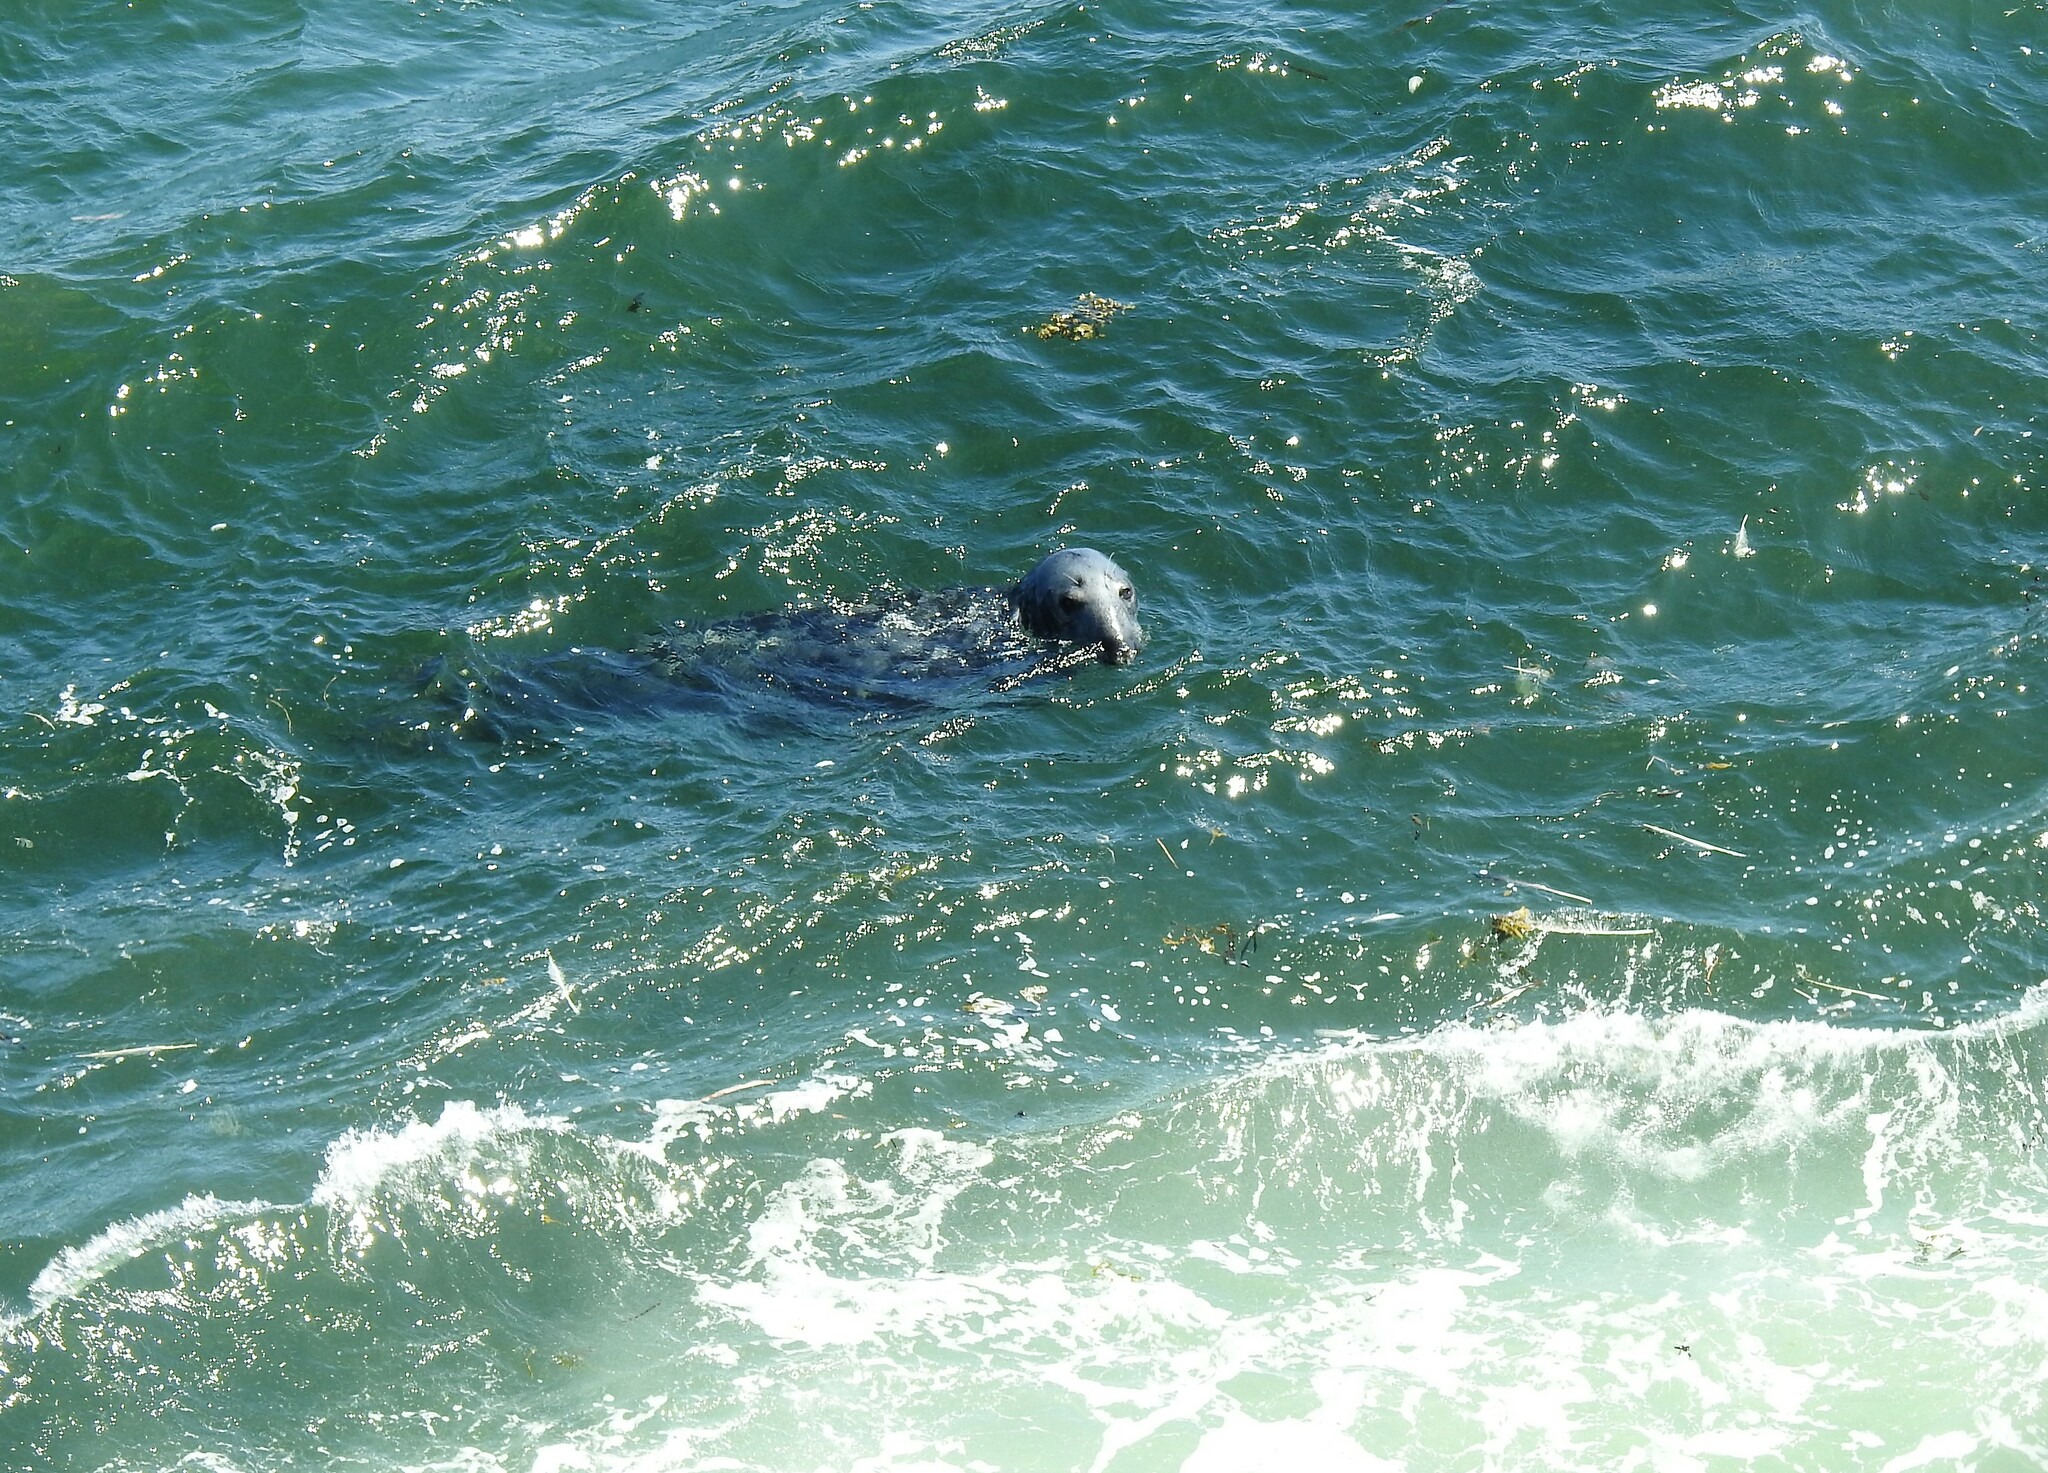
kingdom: Animalia
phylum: Chordata
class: Mammalia
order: Carnivora
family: Phocidae
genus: Halichoerus
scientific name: Halichoerus grypus
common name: Grey seal
